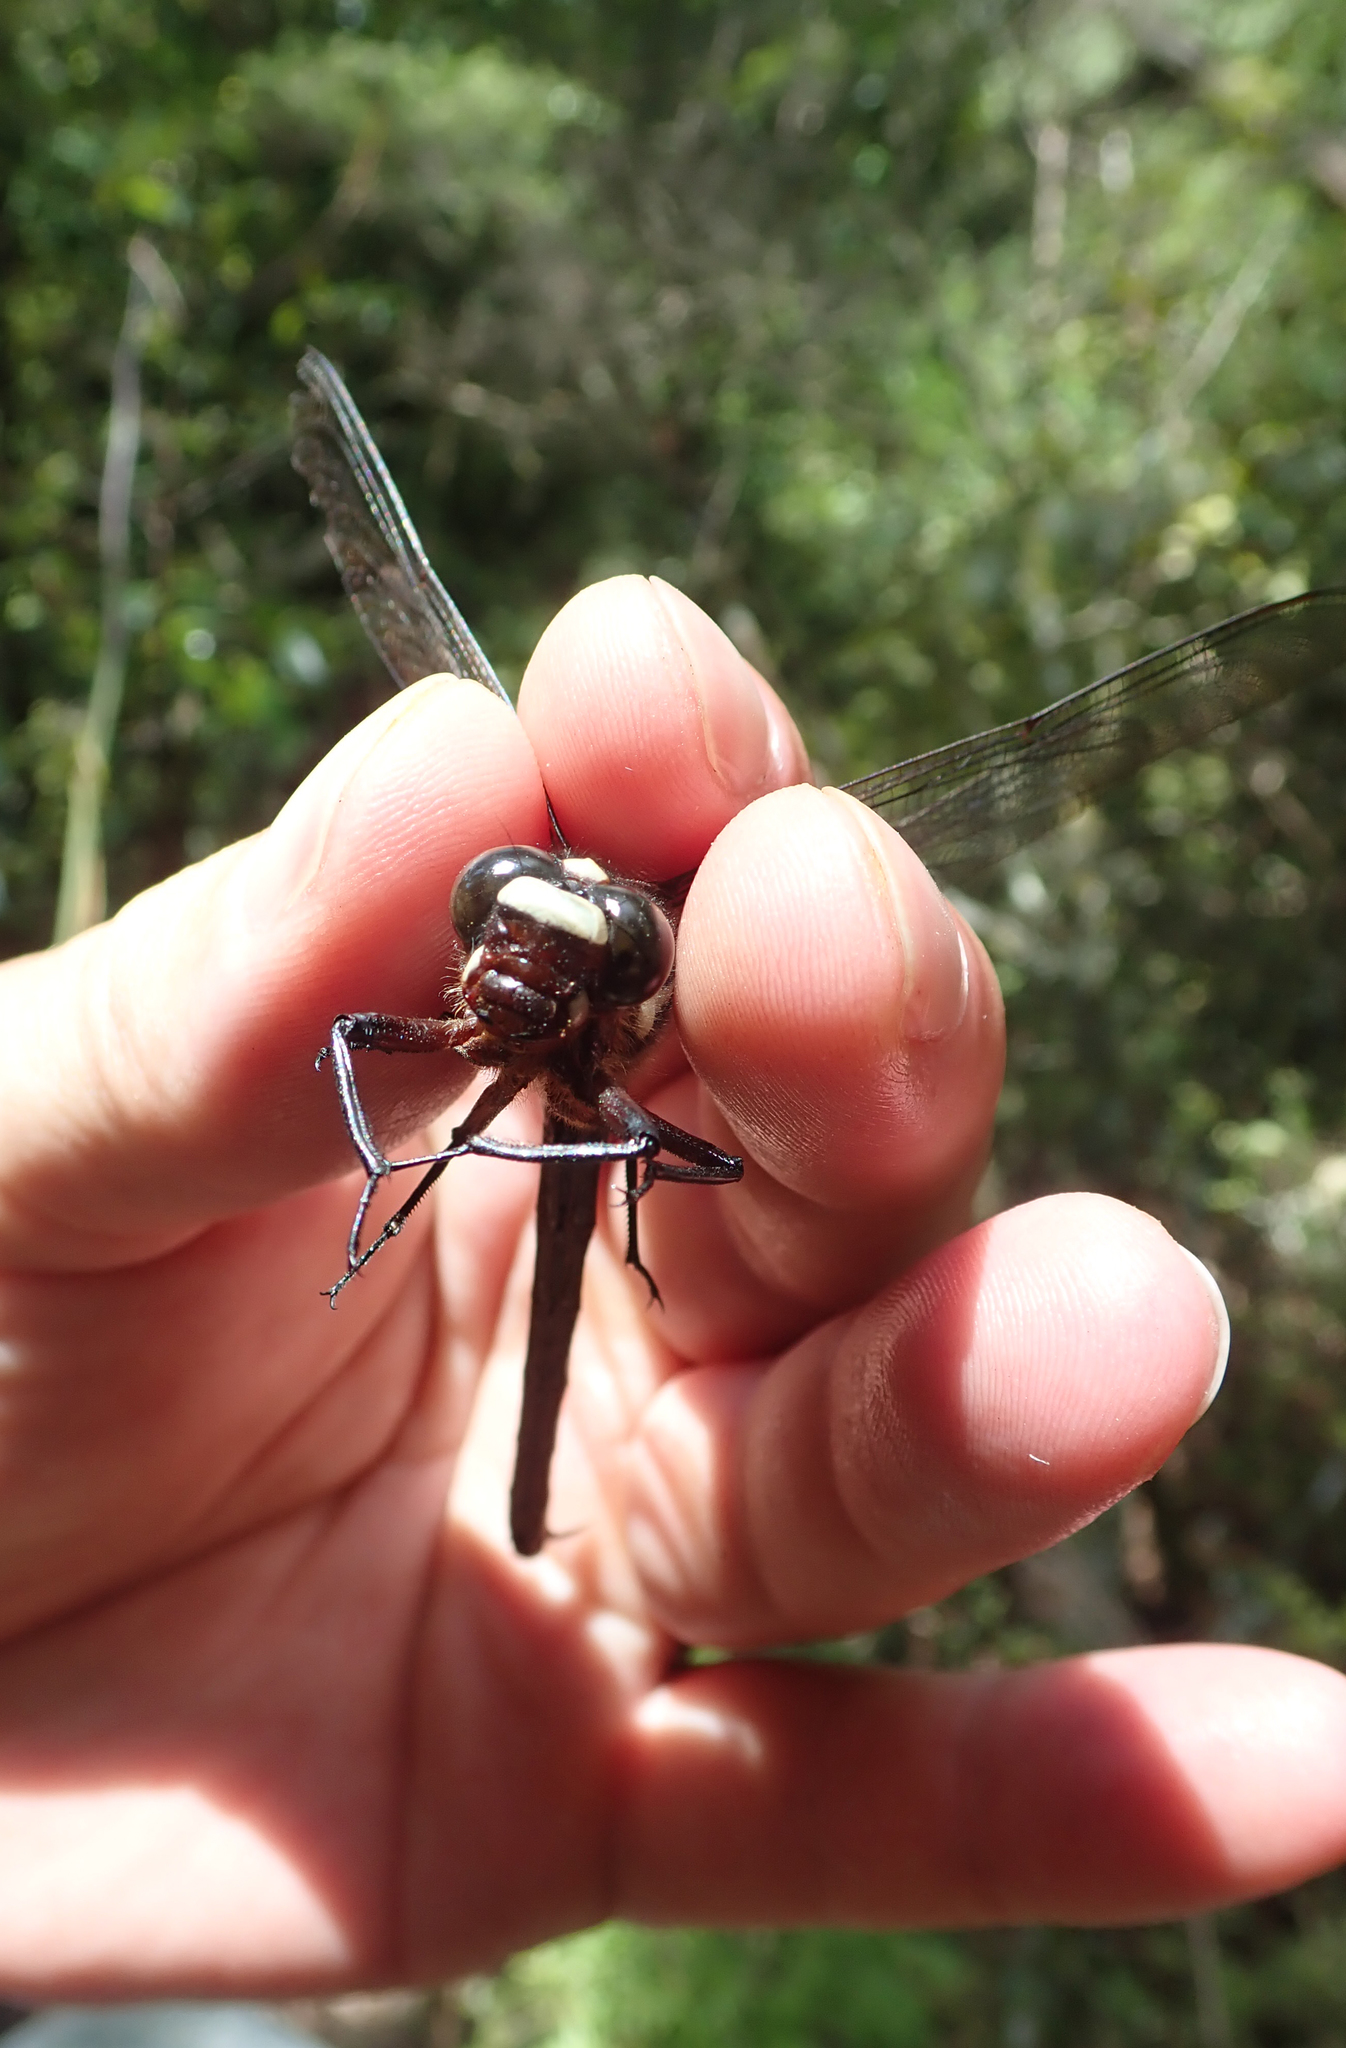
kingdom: Animalia
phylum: Arthropoda
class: Insecta
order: Odonata
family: Petaluridae
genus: Uropetala
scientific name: Uropetala carovei
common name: Bush giant dragonfly
